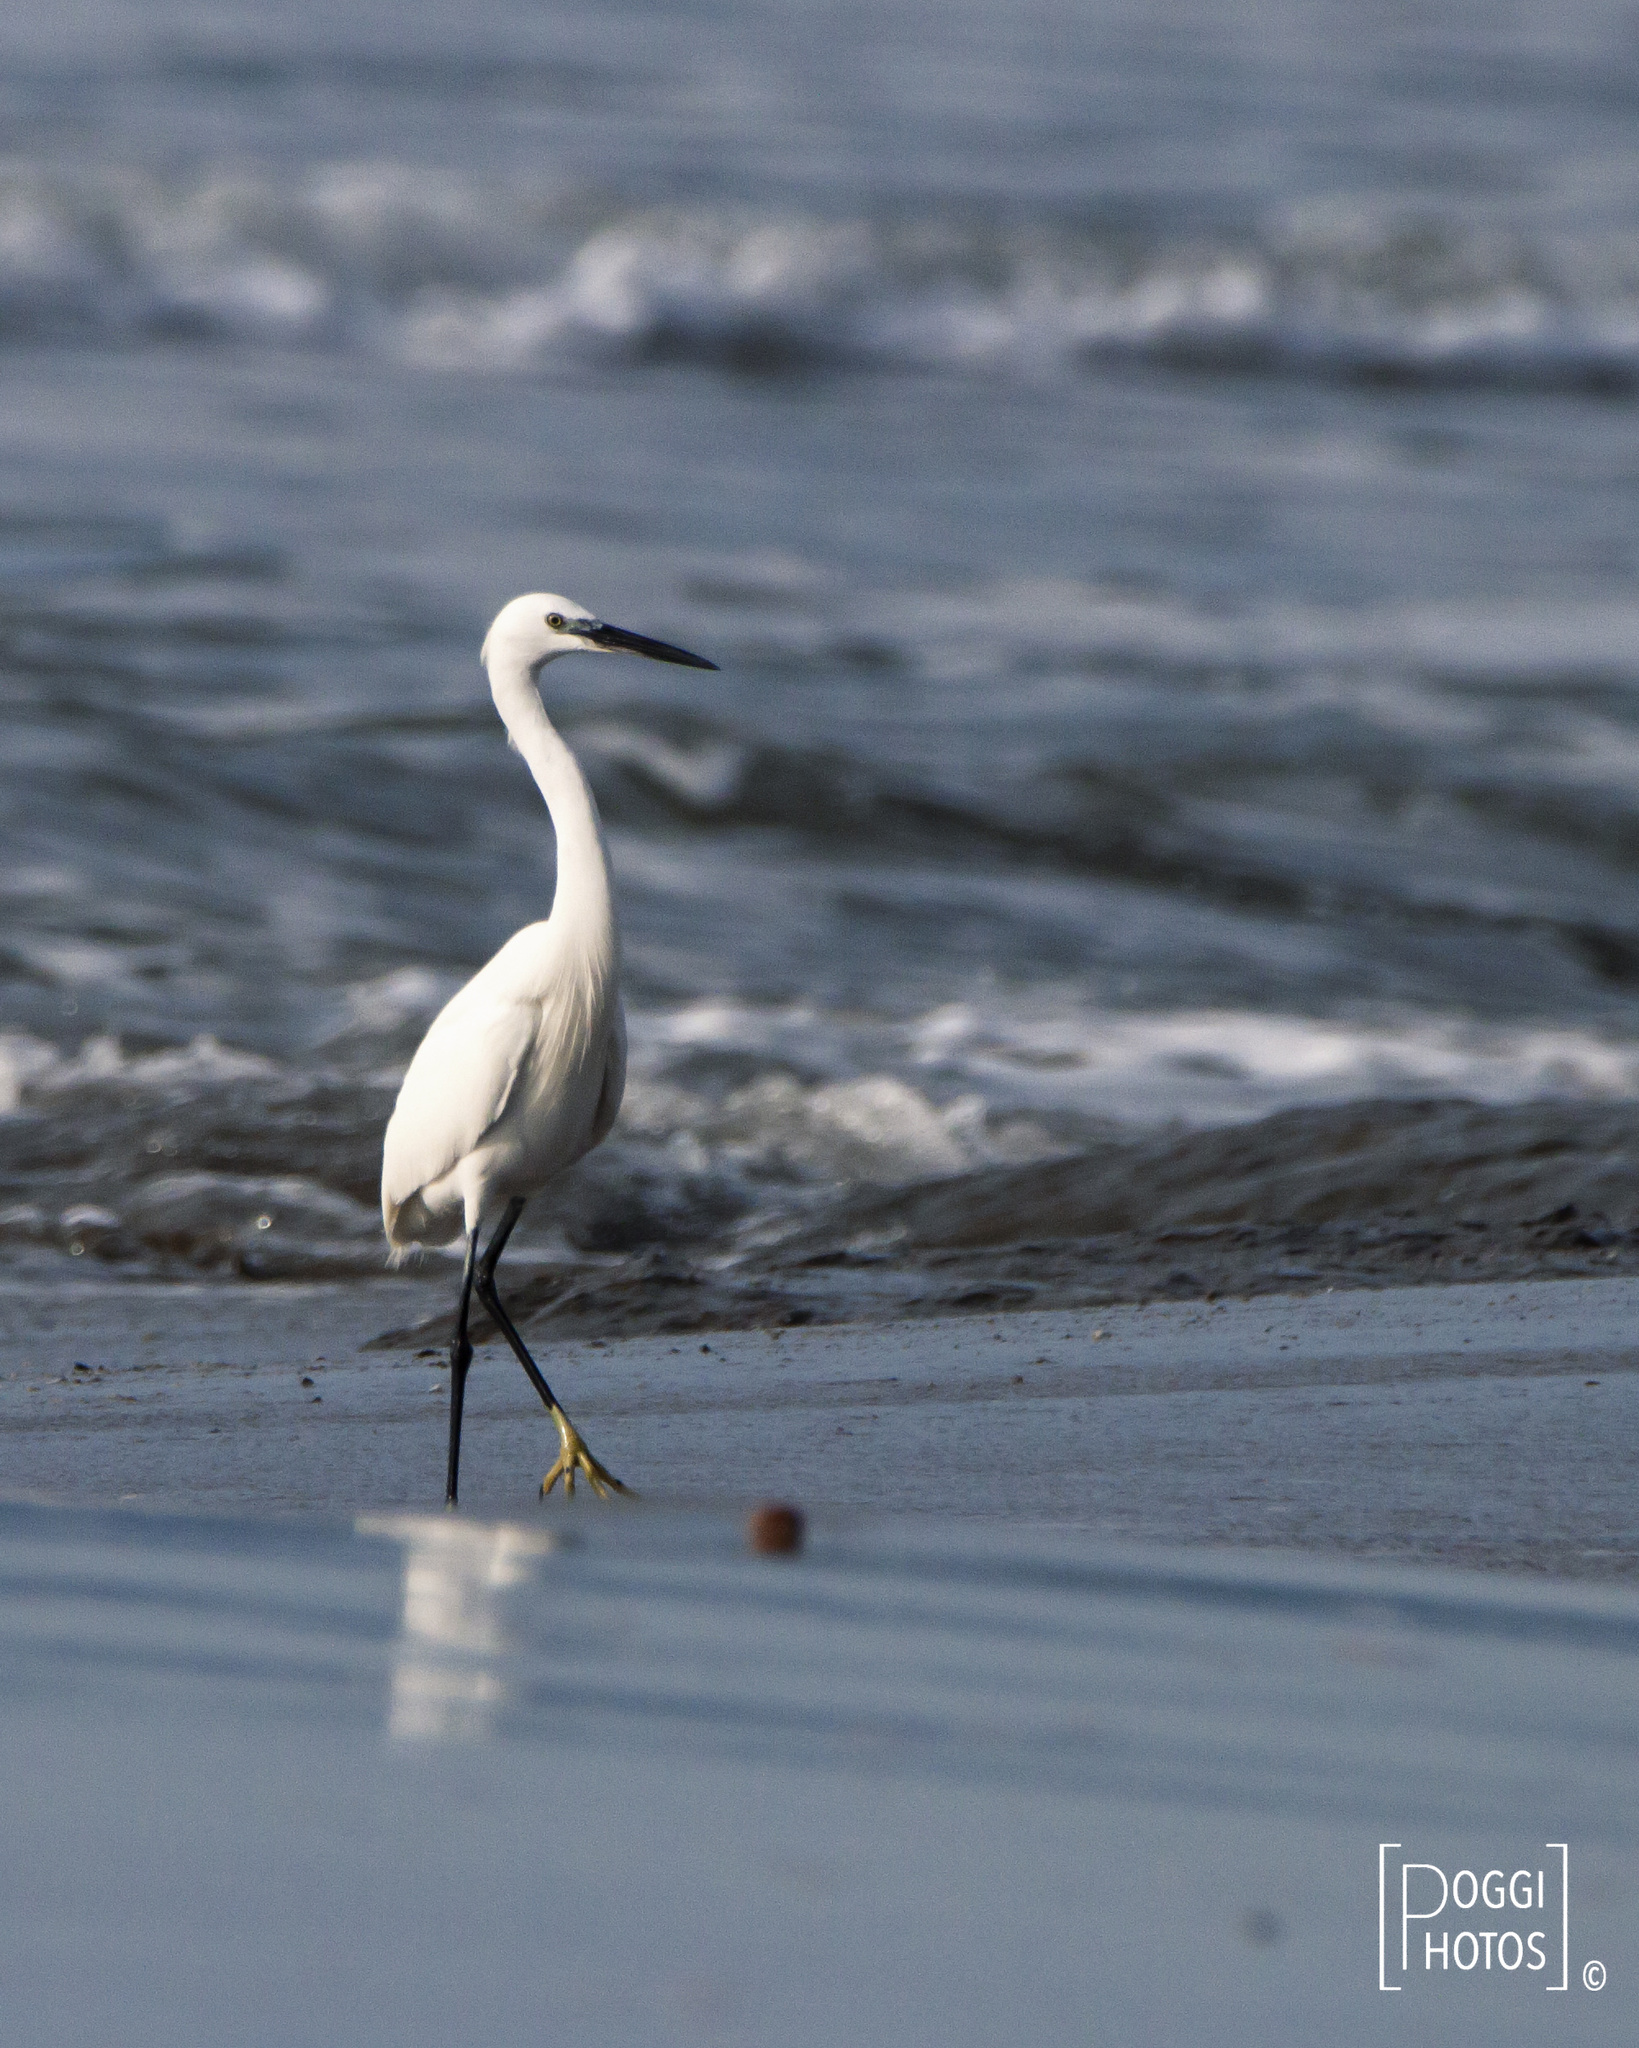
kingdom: Animalia
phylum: Chordata
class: Aves
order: Pelecaniformes
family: Ardeidae
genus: Egretta
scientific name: Egretta garzetta
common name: Little egret
